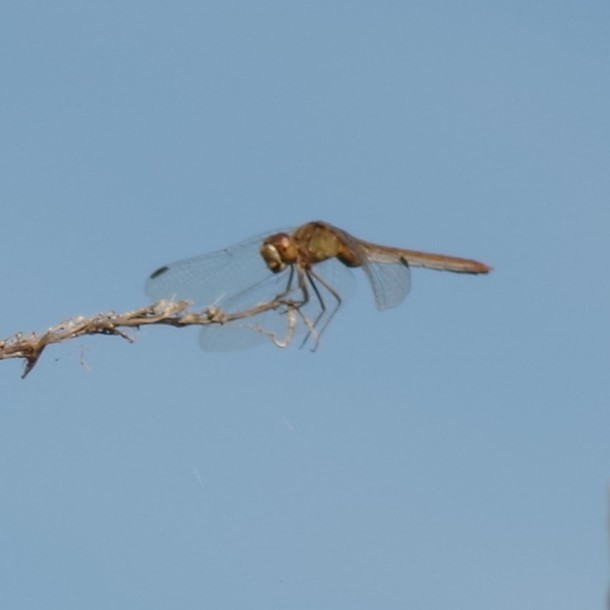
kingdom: Animalia
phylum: Arthropoda
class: Insecta
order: Odonata
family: Libellulidae
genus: Sympetrum
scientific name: Sympetrum meridionale
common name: Southern darter
